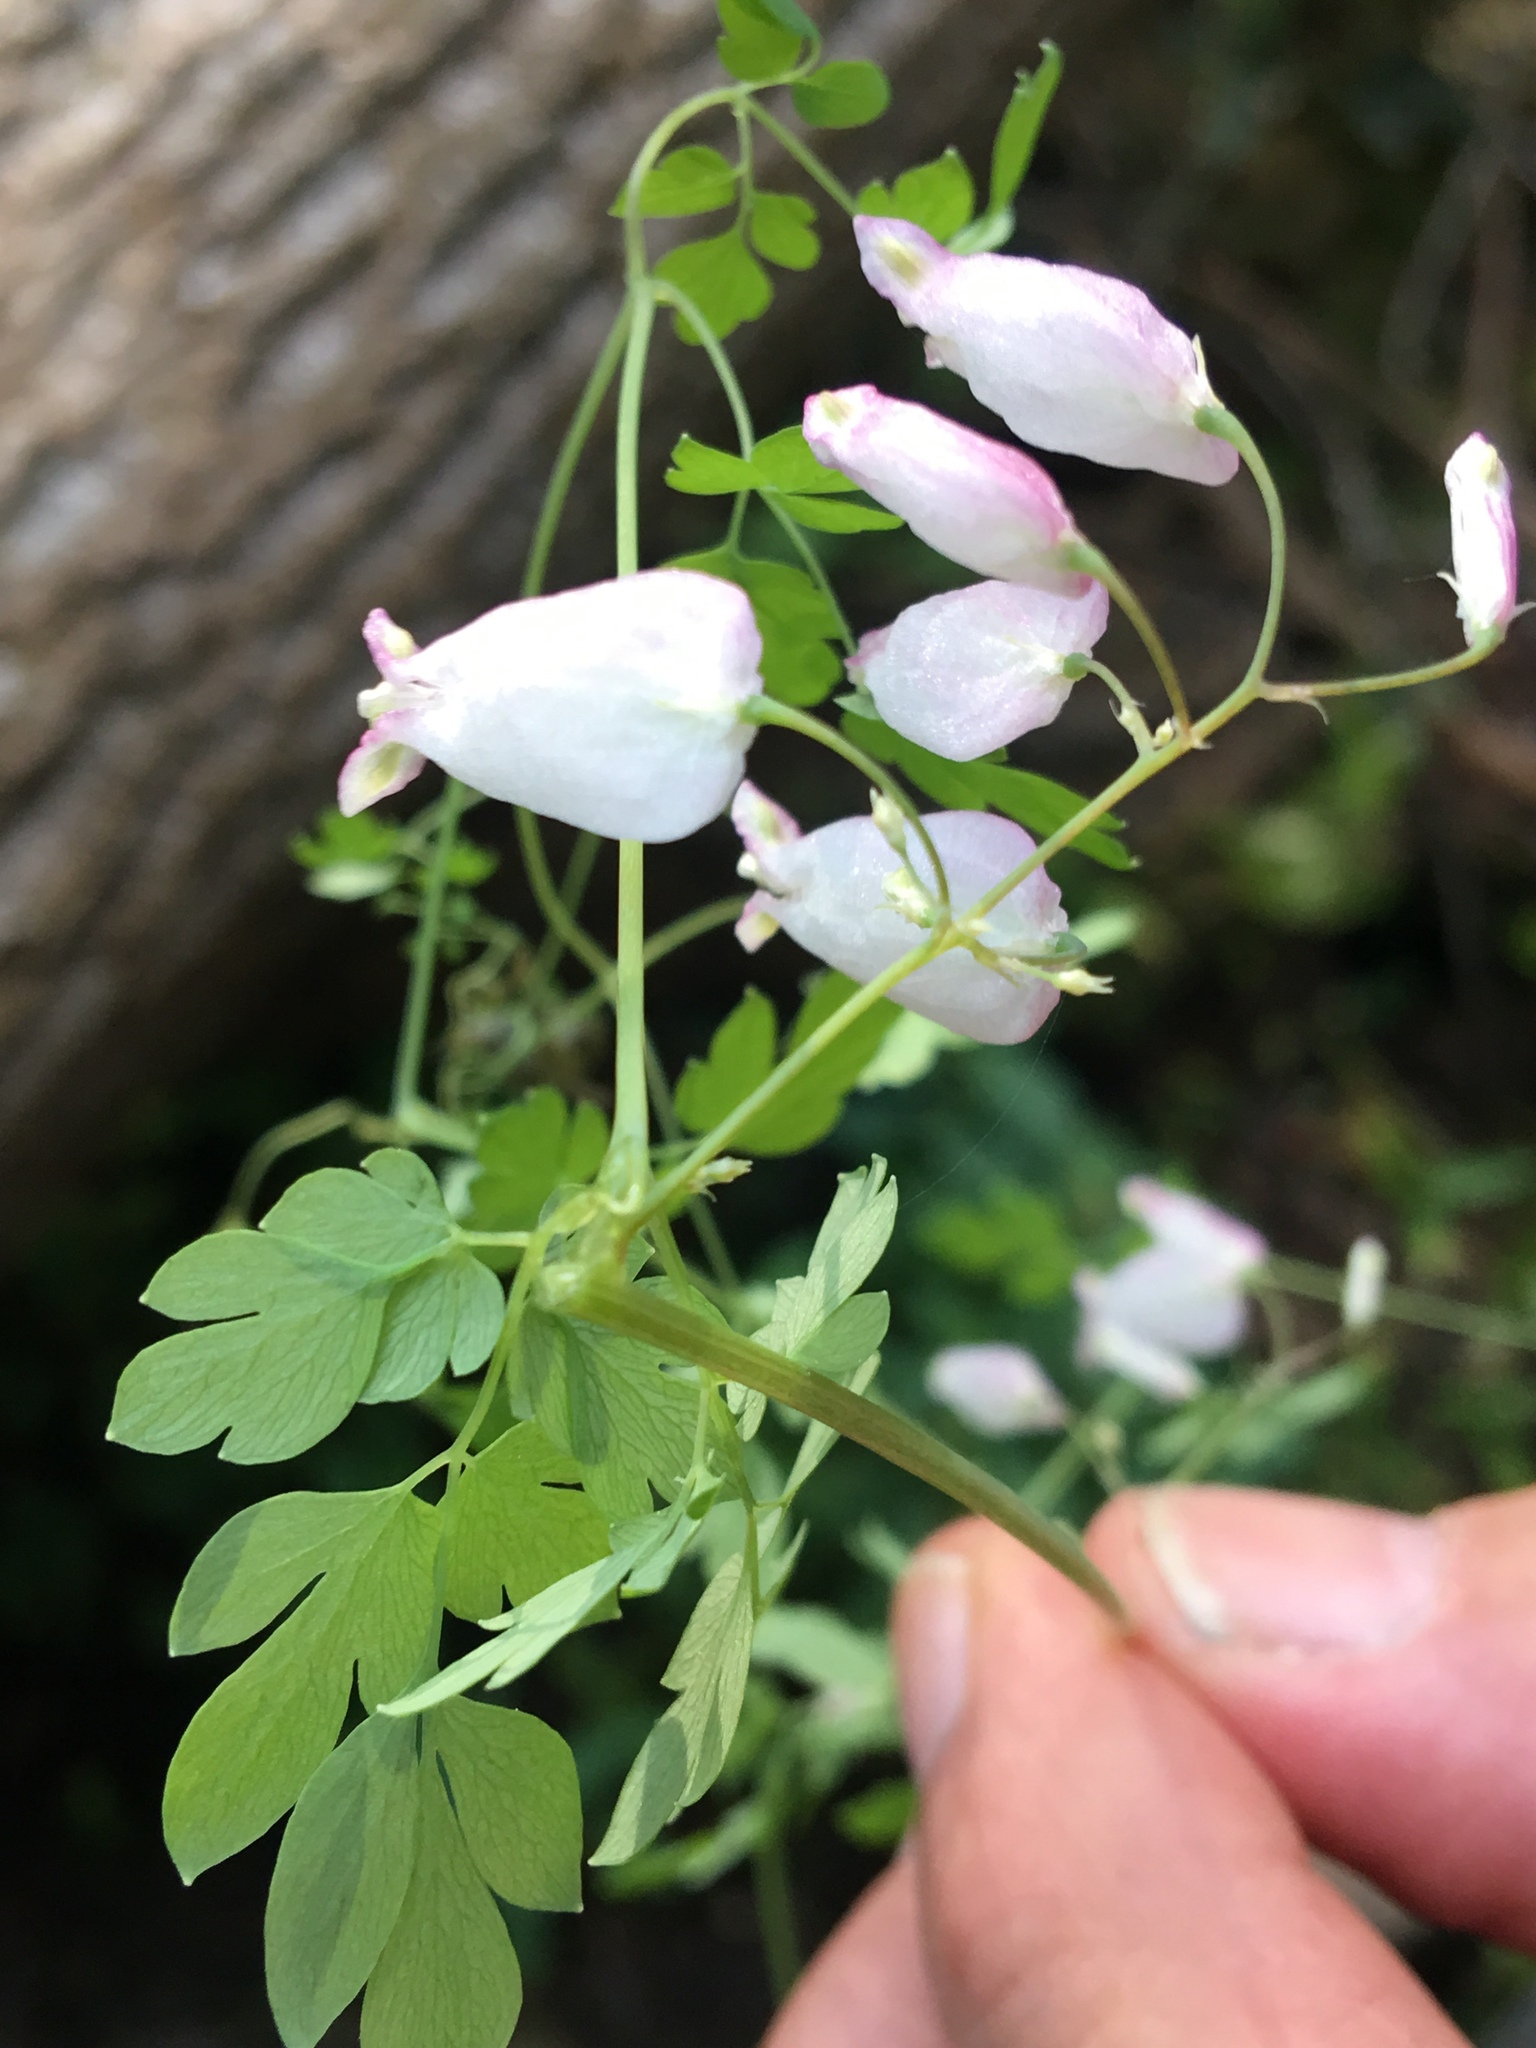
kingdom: Plantae
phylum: Tracheophyta
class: Magnoliopsida
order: Ranunculales
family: Papaveraceae
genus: Adlumia
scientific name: Adlumia fungosa
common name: Mountain-fringe
